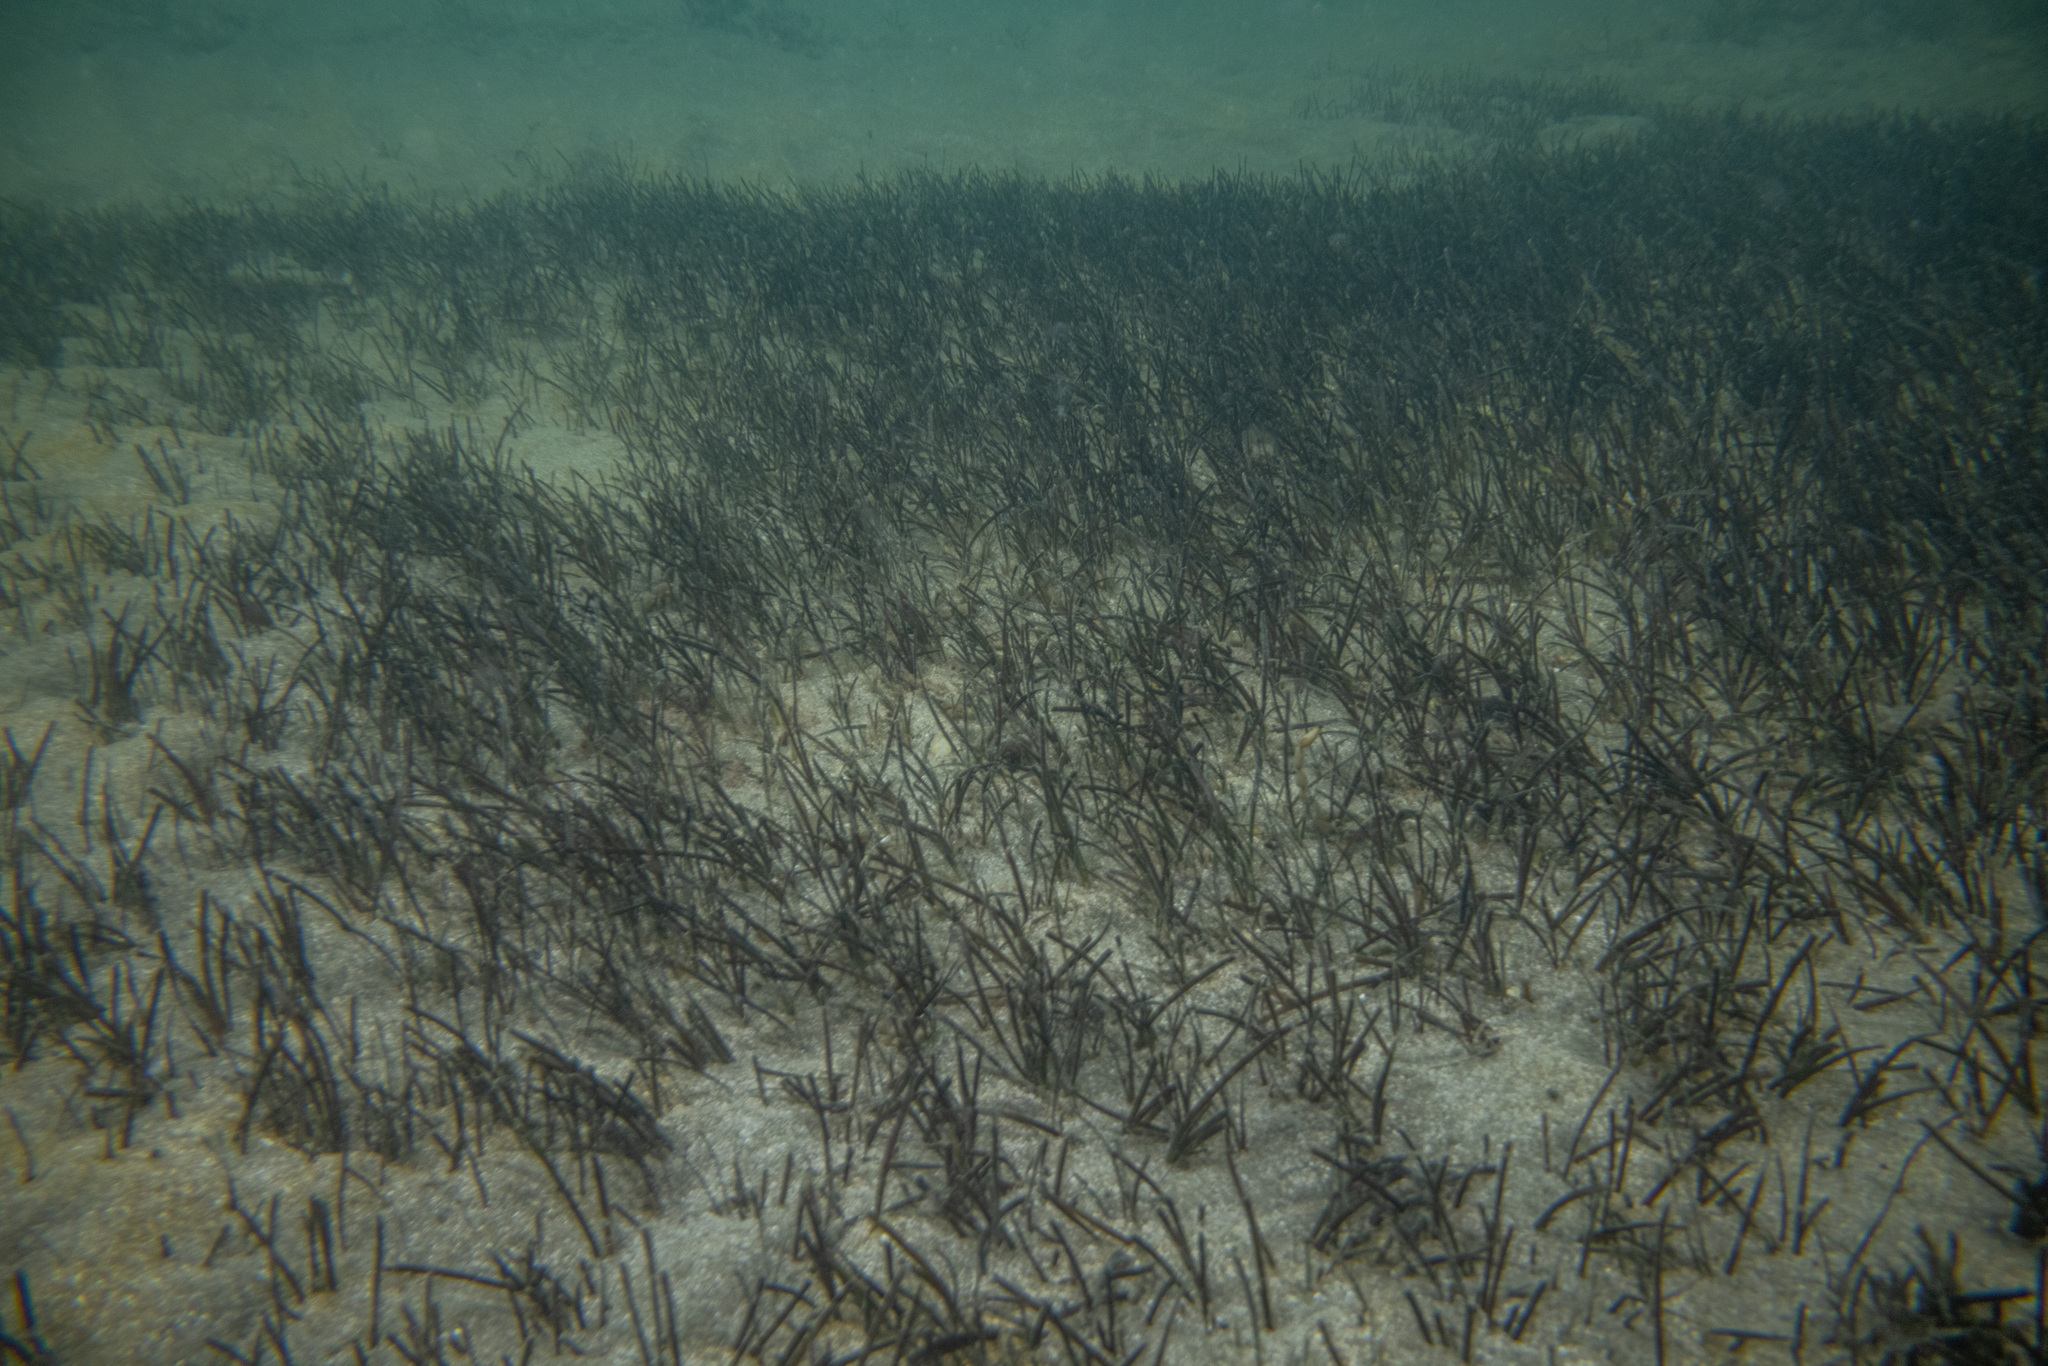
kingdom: Plantae
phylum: Tracheophyta
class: Liliopsida
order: Alismatales
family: Zosteraceae
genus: Zostera
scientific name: Zostera novazelandica
